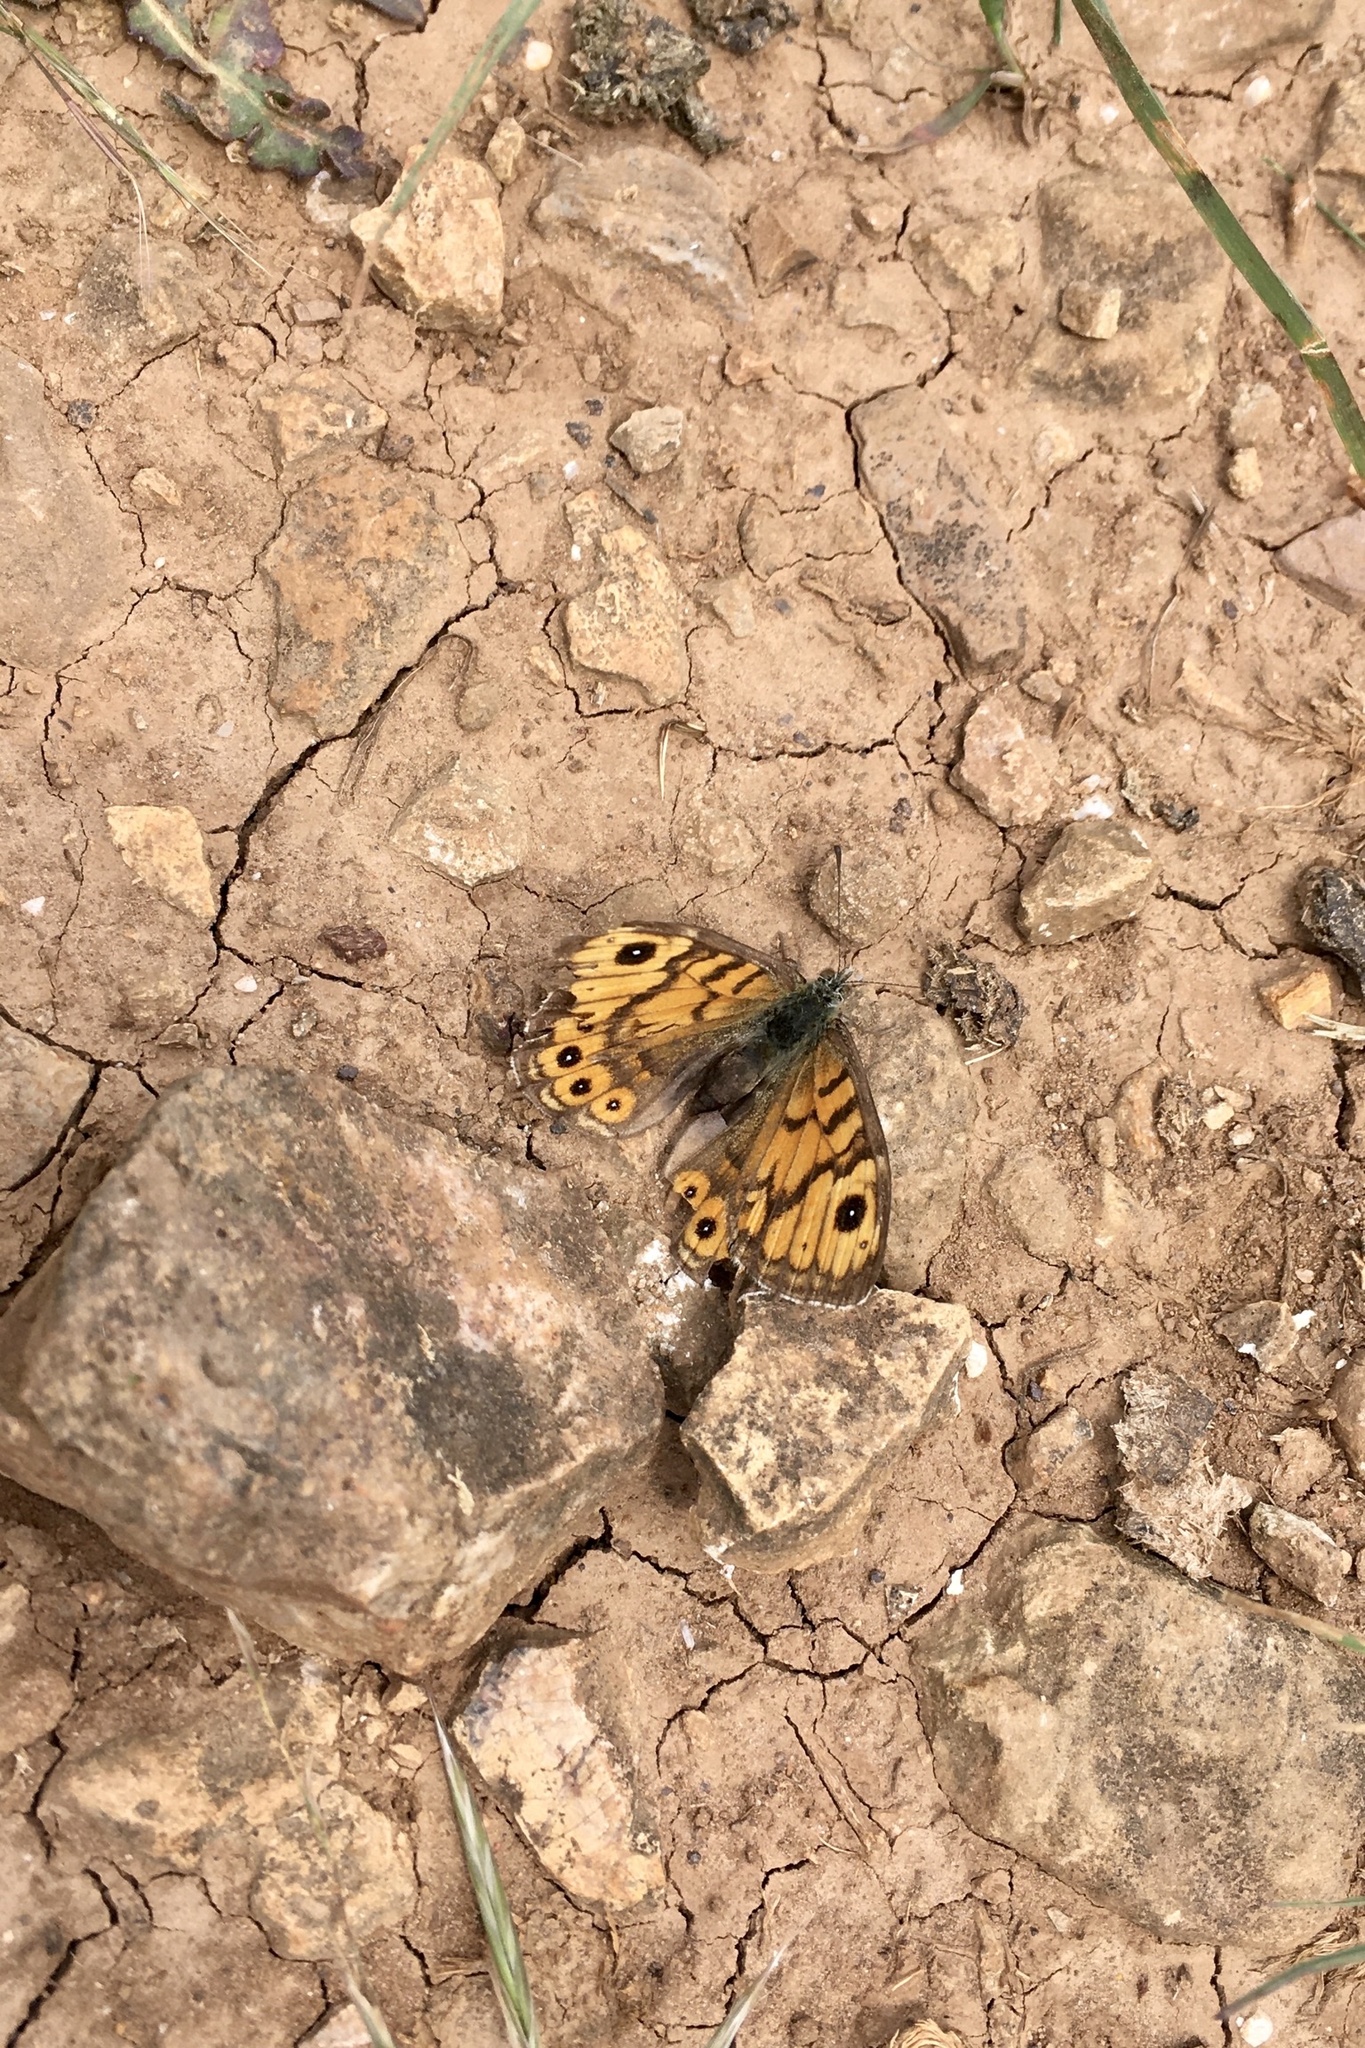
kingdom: Animalia
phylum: Arthropoda
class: Insecta
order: Lepidoptera
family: Nymphalidae
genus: Pararge
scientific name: Pararge Lasiommata megera
